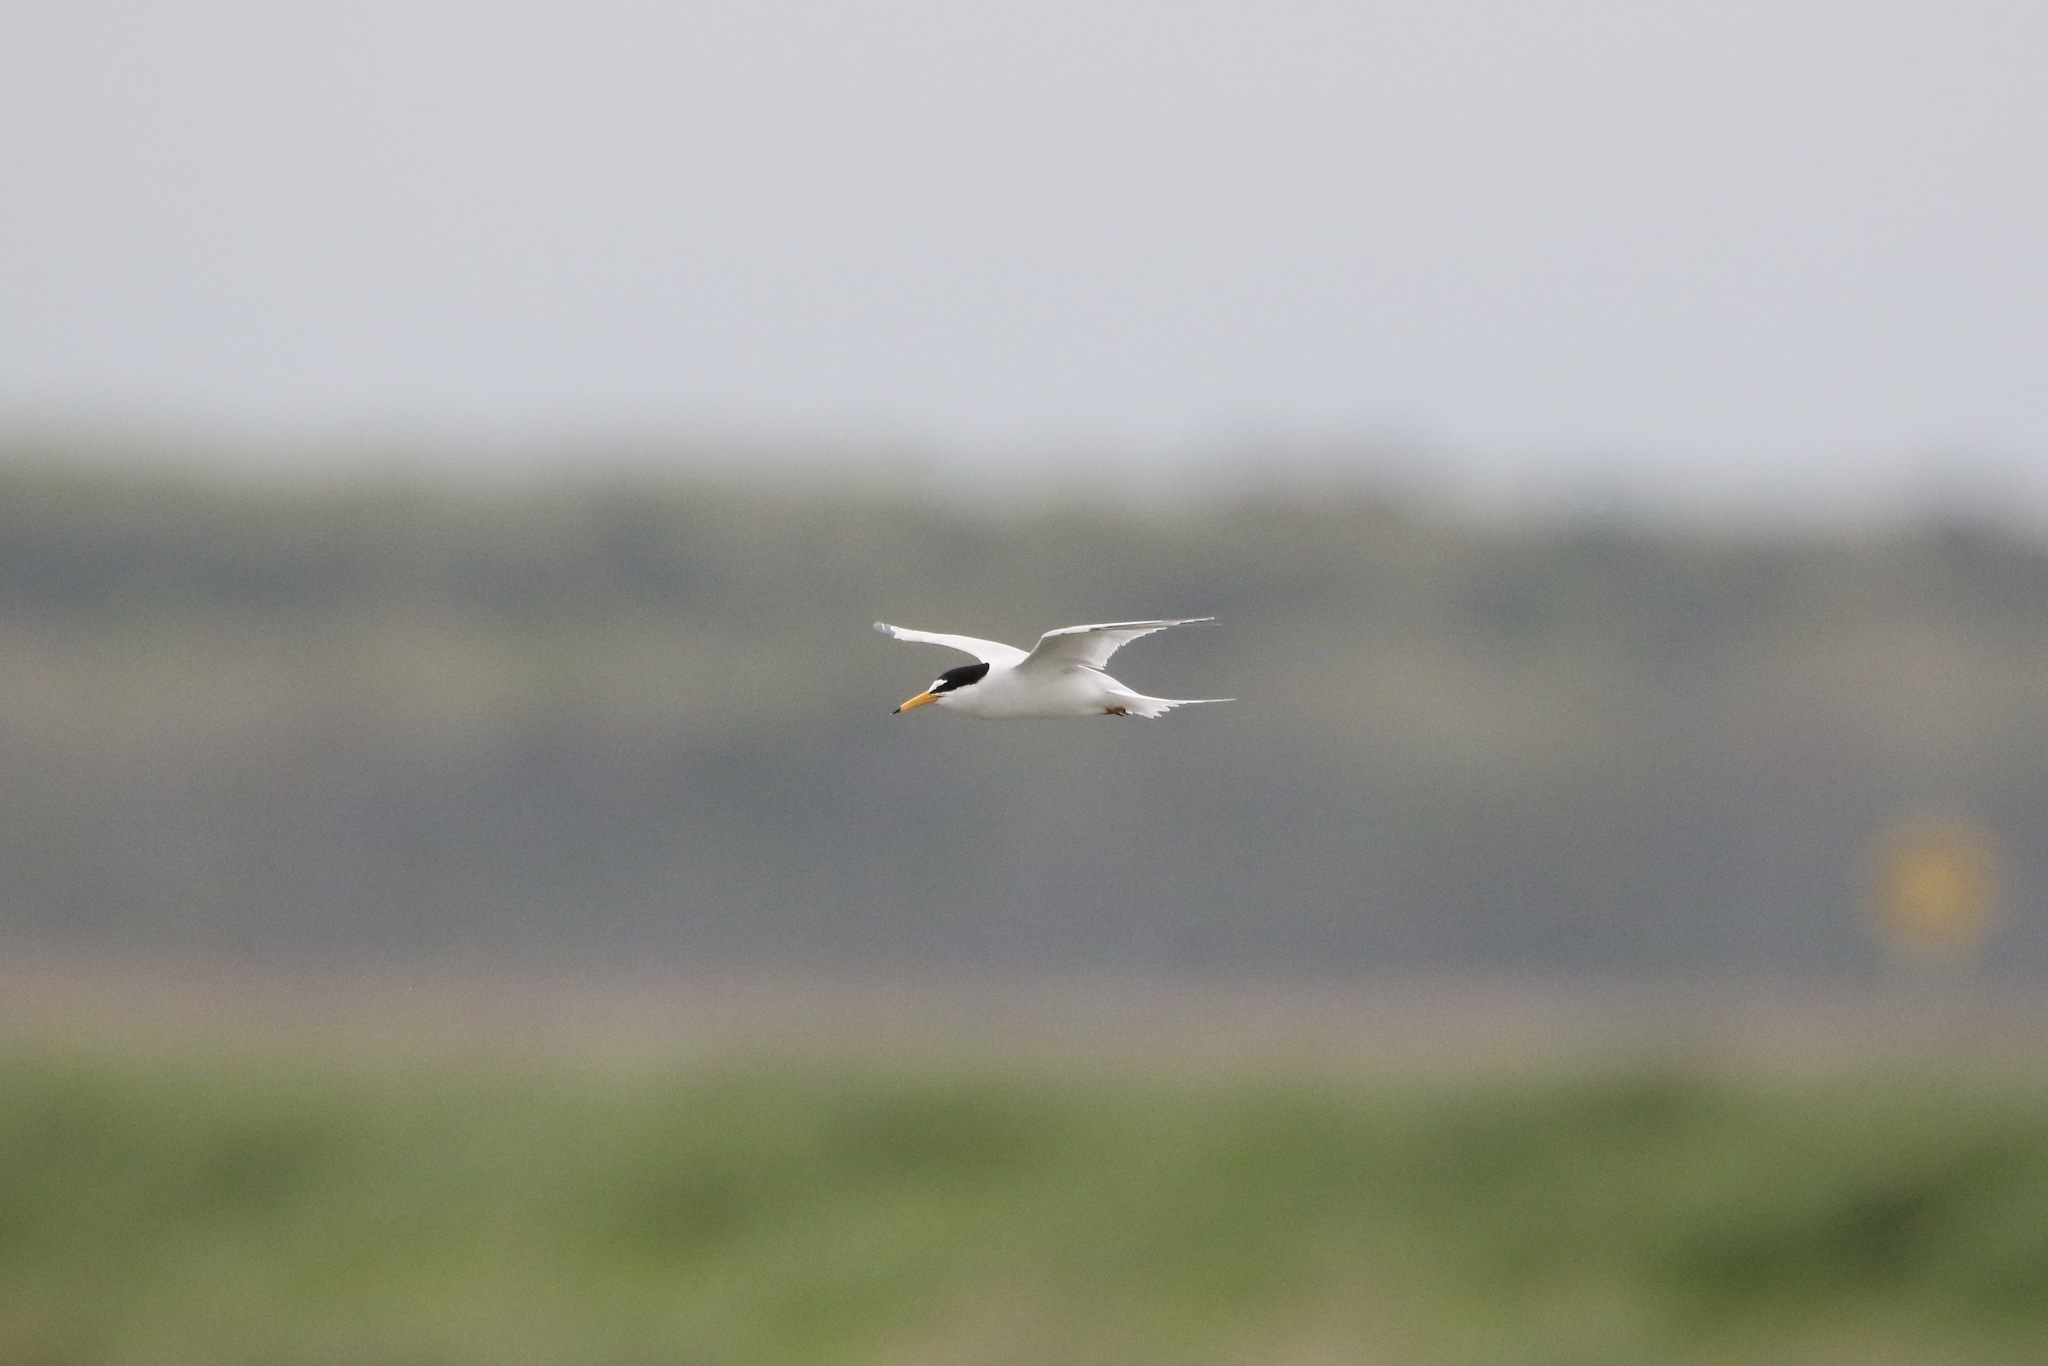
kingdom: Animalia
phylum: Chordata
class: Aves
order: Charadriiformes
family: Laridae
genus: Sternula
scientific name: Sternula antillarum
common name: Least tern
